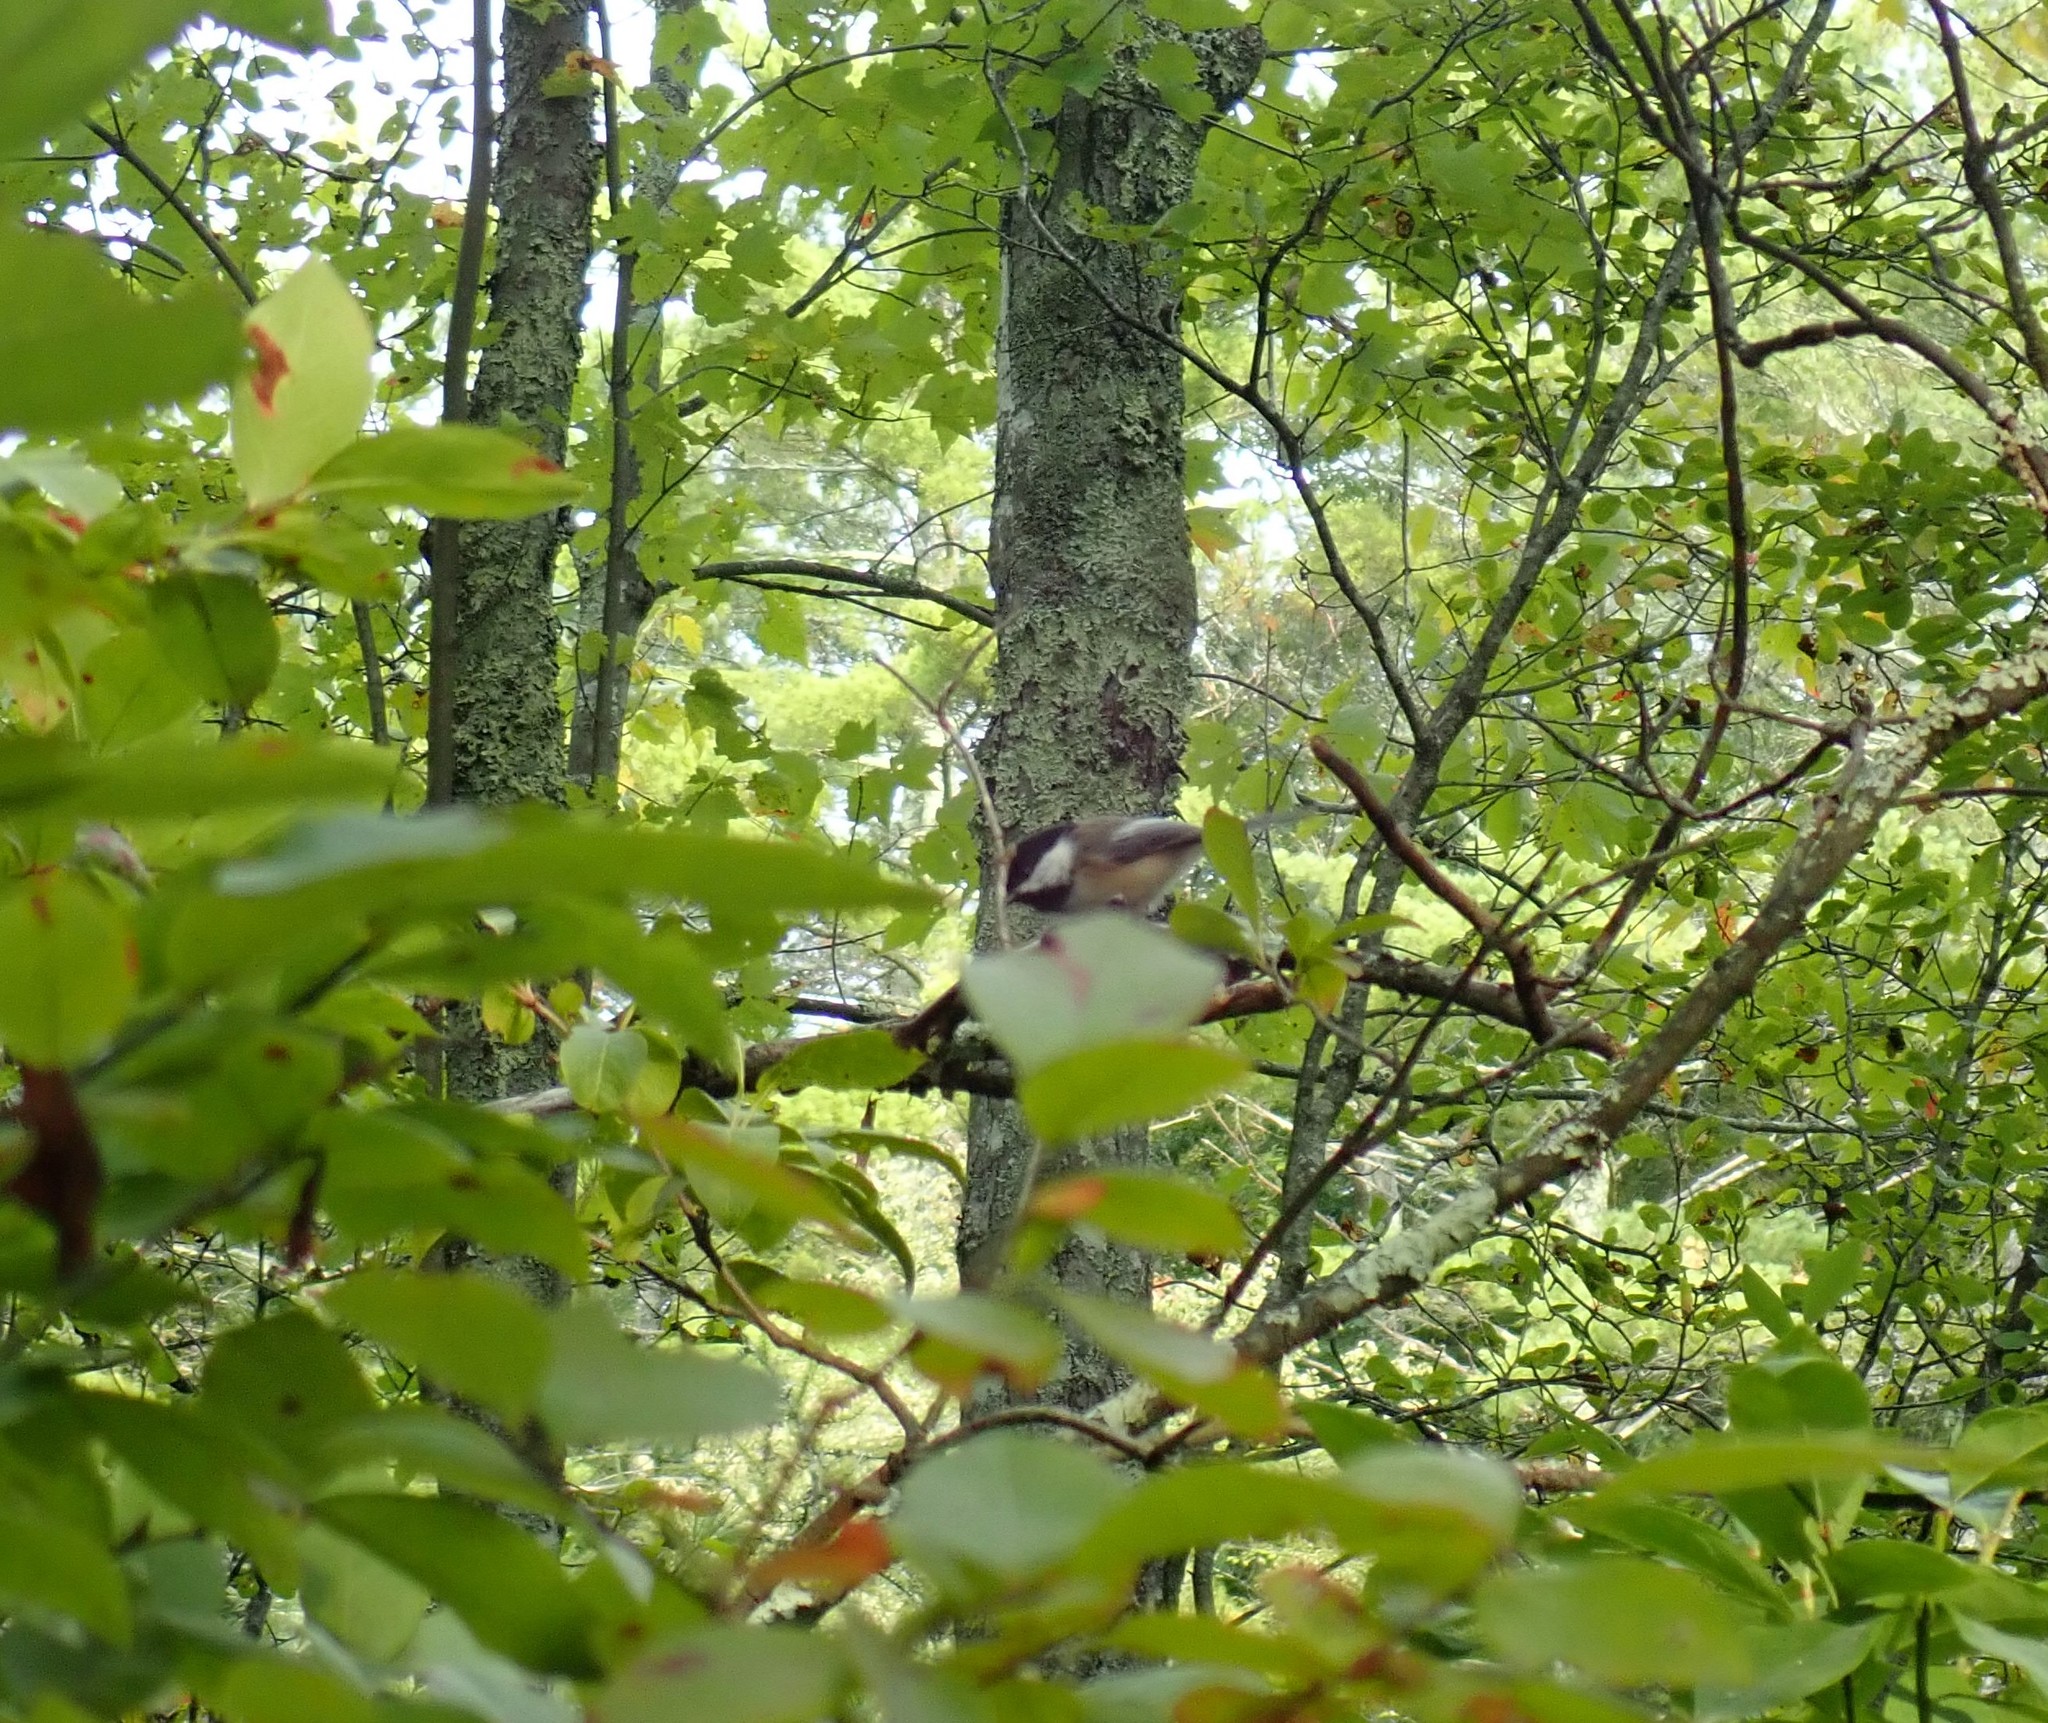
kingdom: Animalia
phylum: Chordata
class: Aves
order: Passeriformes
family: Paridae
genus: Poecile
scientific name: Poecile atricapillus
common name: Black-capped chickadee
